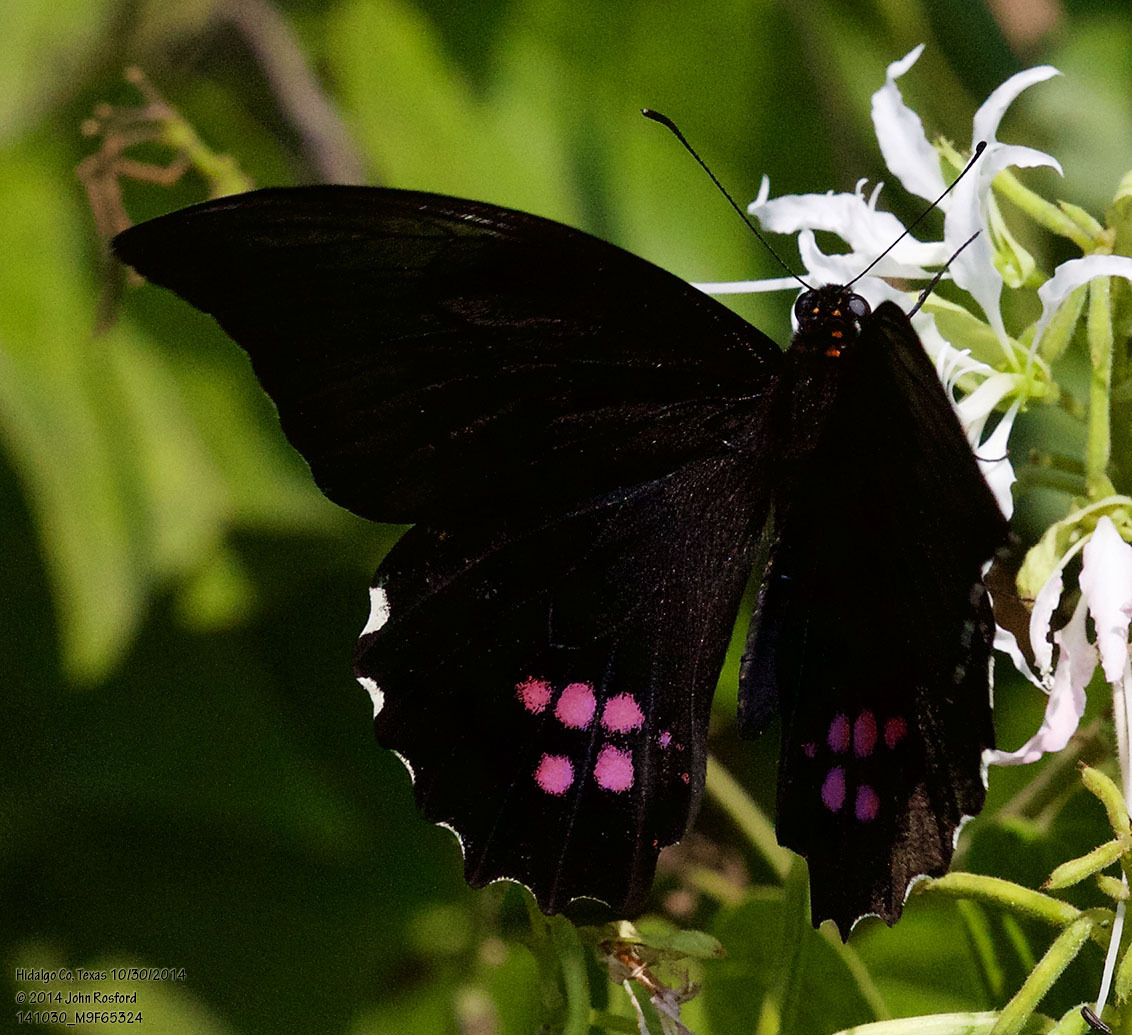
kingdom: Animalia
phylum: Arthropoda
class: Insecta
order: Lepidoptera
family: Papilionidae
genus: Papilio
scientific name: Papilio anchisiades
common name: Idaes swallowtail
